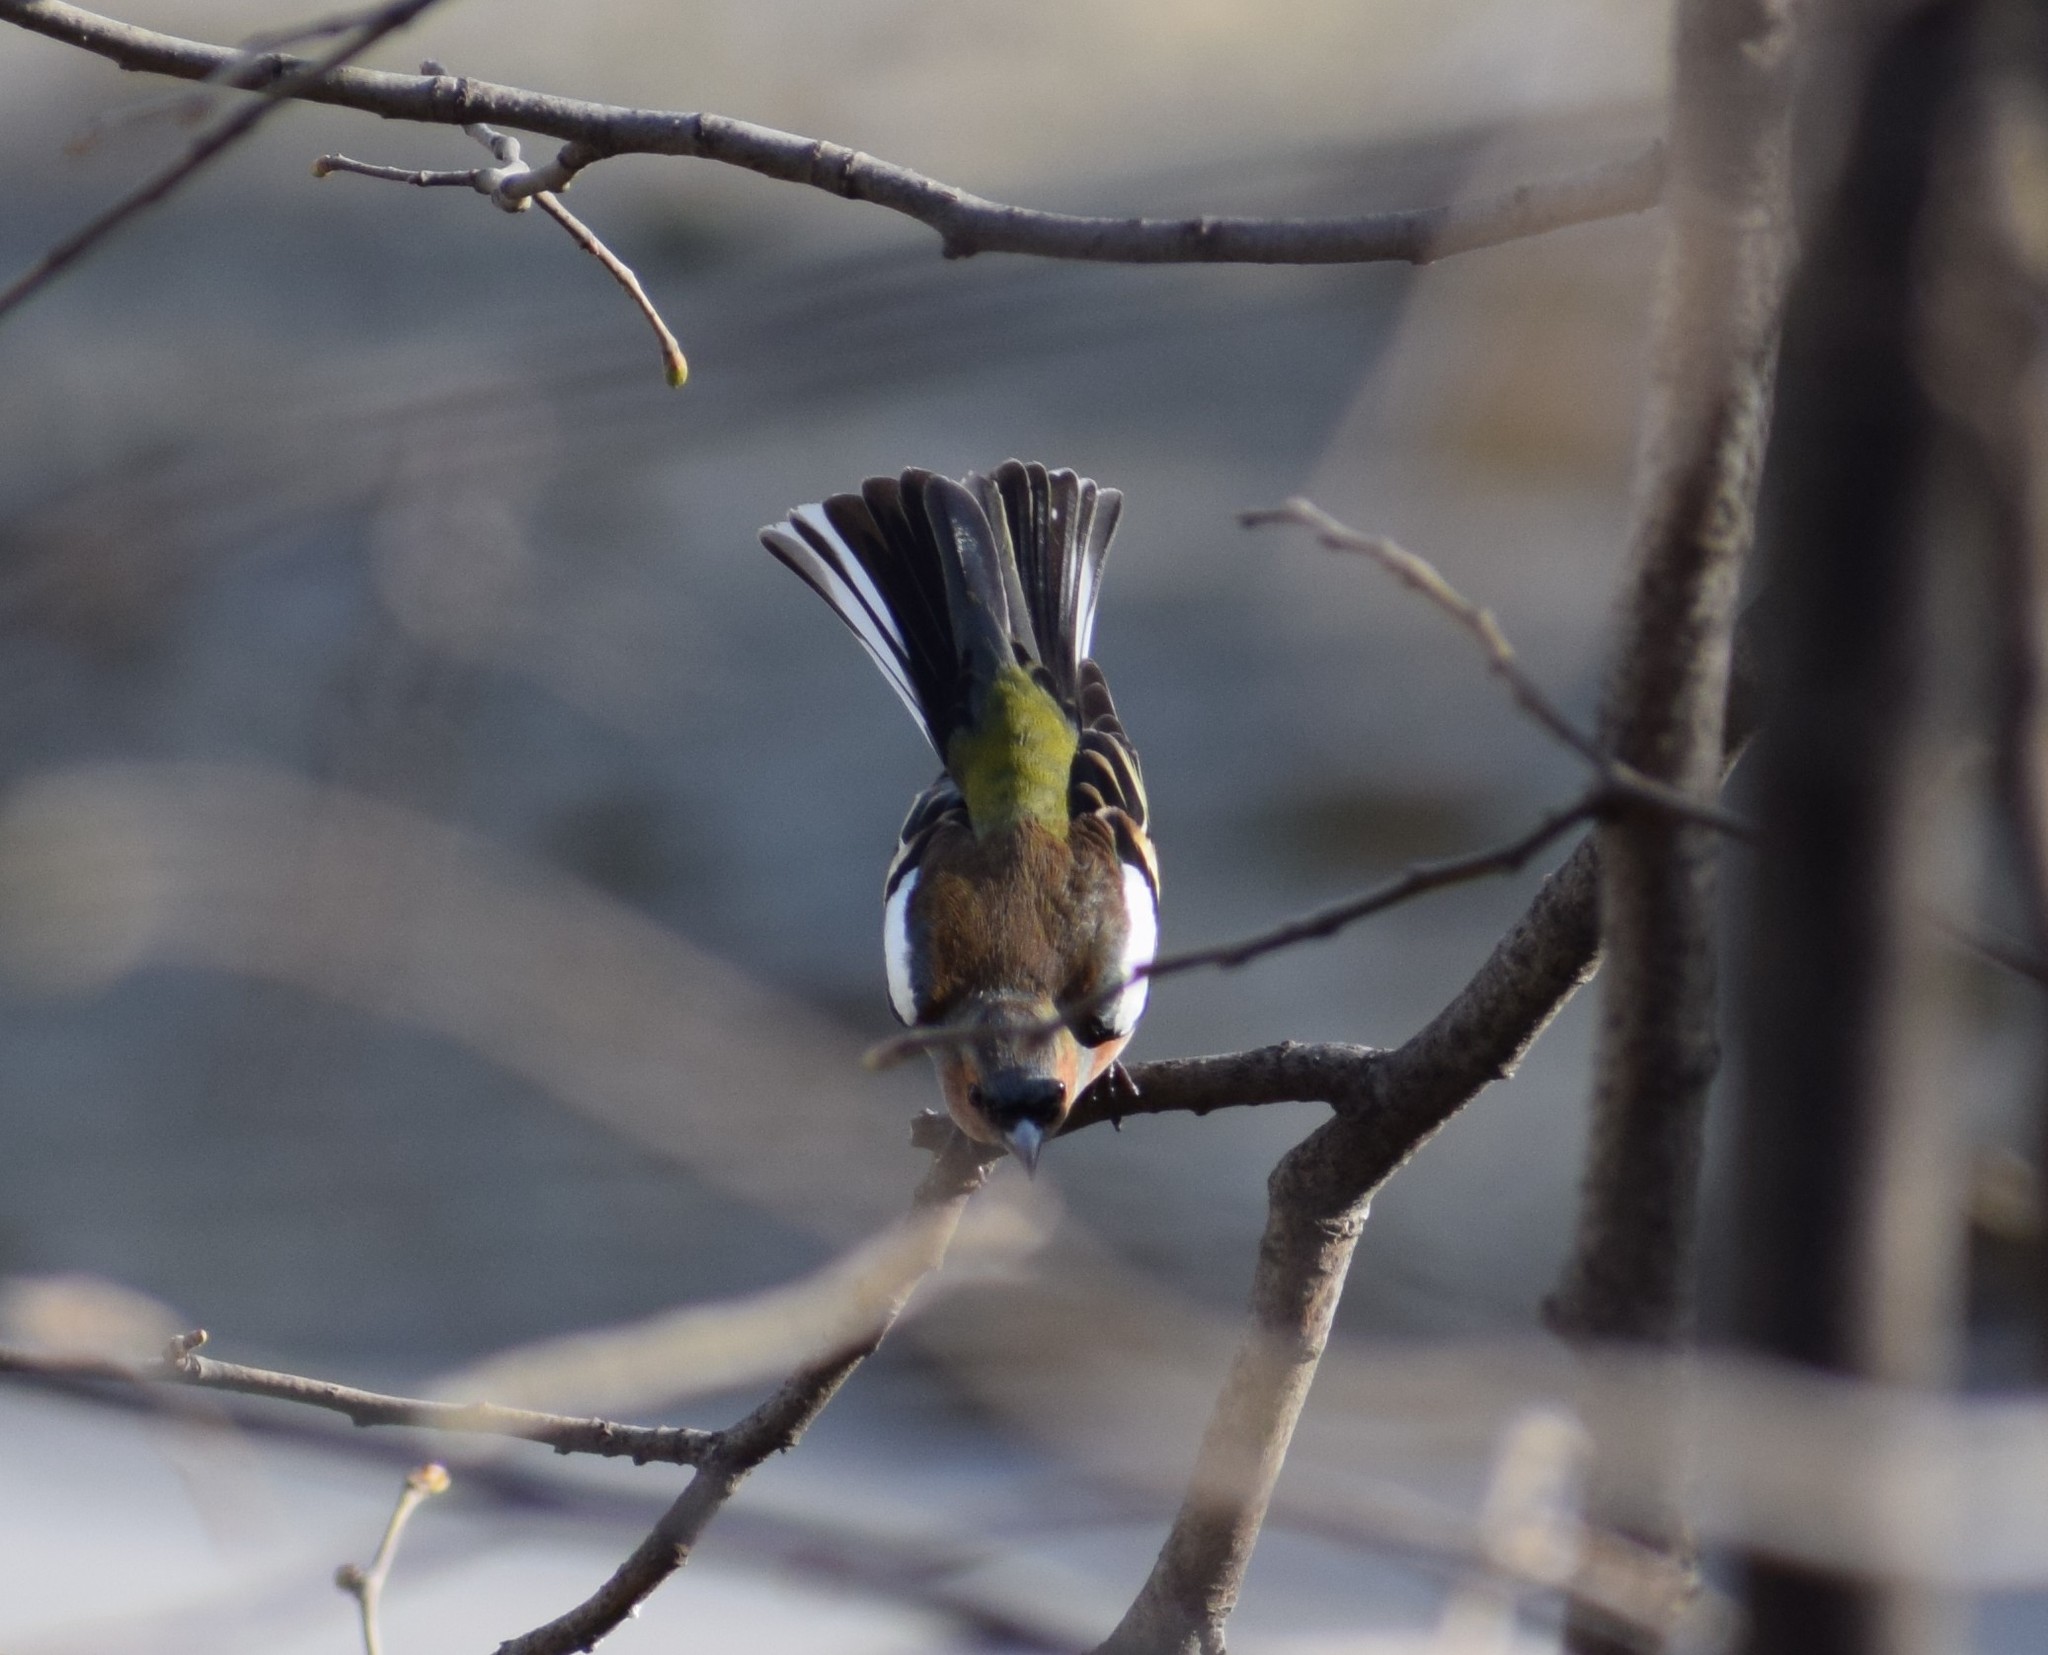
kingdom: Animalia
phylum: Chordata
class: Aves
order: Passeriformes
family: Fringillidae
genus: Fringilla
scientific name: Fringilla coelebs
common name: Common chaffinch
